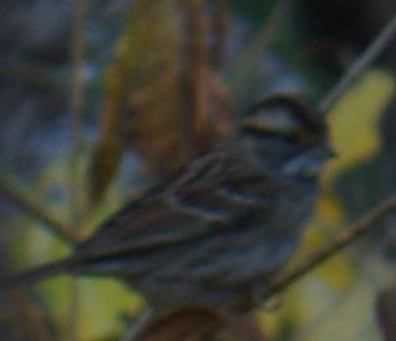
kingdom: Animalia
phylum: Chordata
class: Aves
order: Passeriformes
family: Passerellidae
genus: Zonotrichia
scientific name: Zonotrichia albicollis
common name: White-throated sparrow
